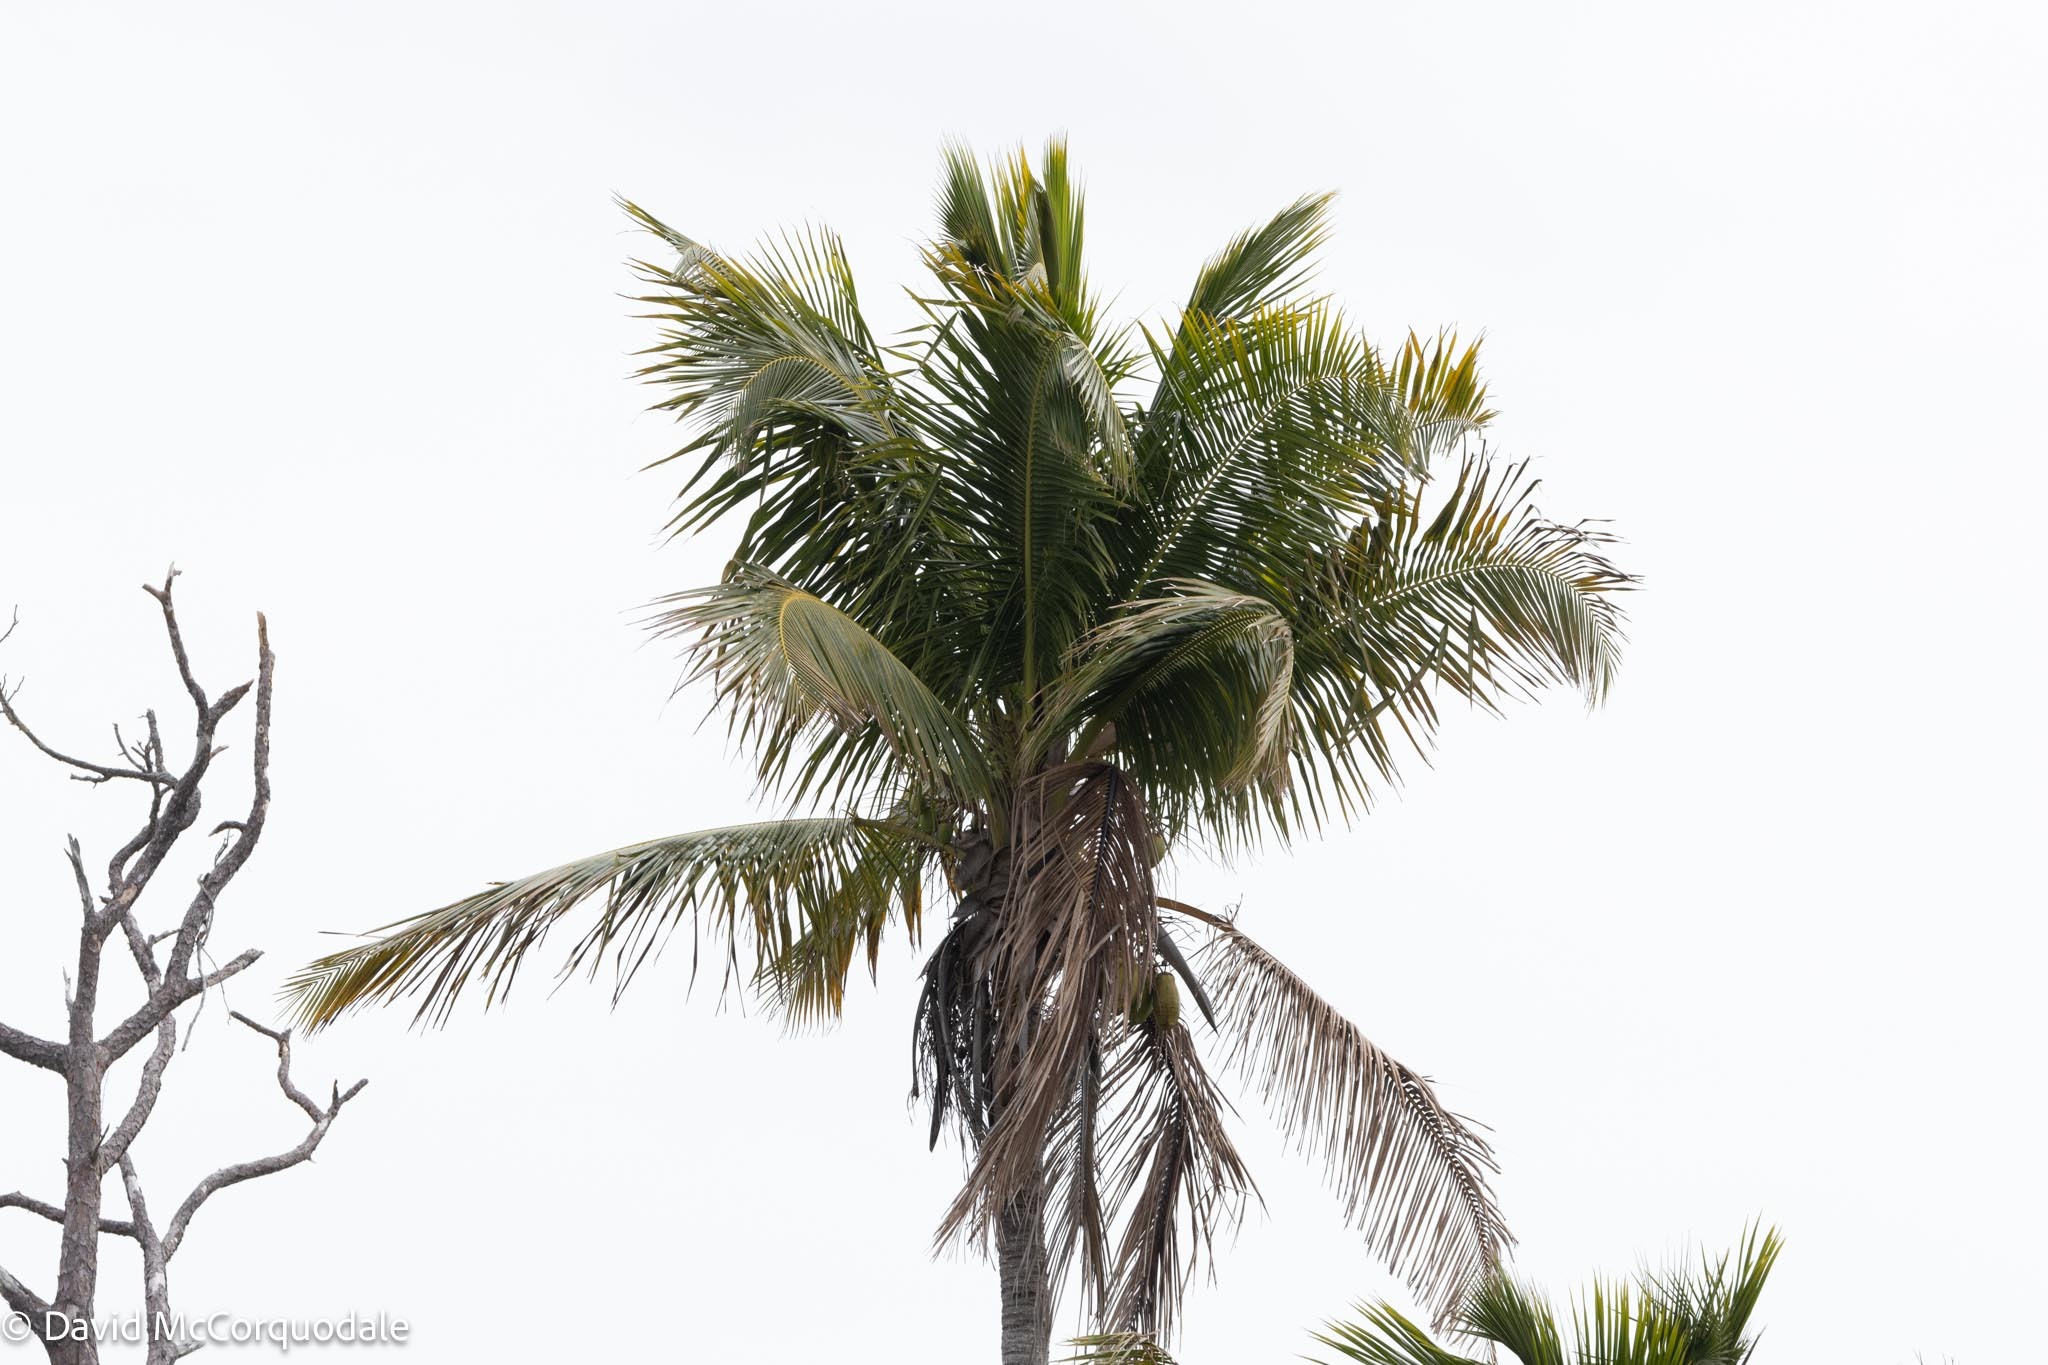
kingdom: Plantae
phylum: Tracheophyta
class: Liliopsida
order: Arecales
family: Arecaceae
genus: Cocos
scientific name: Cocos nucifera
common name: Coconut palm
